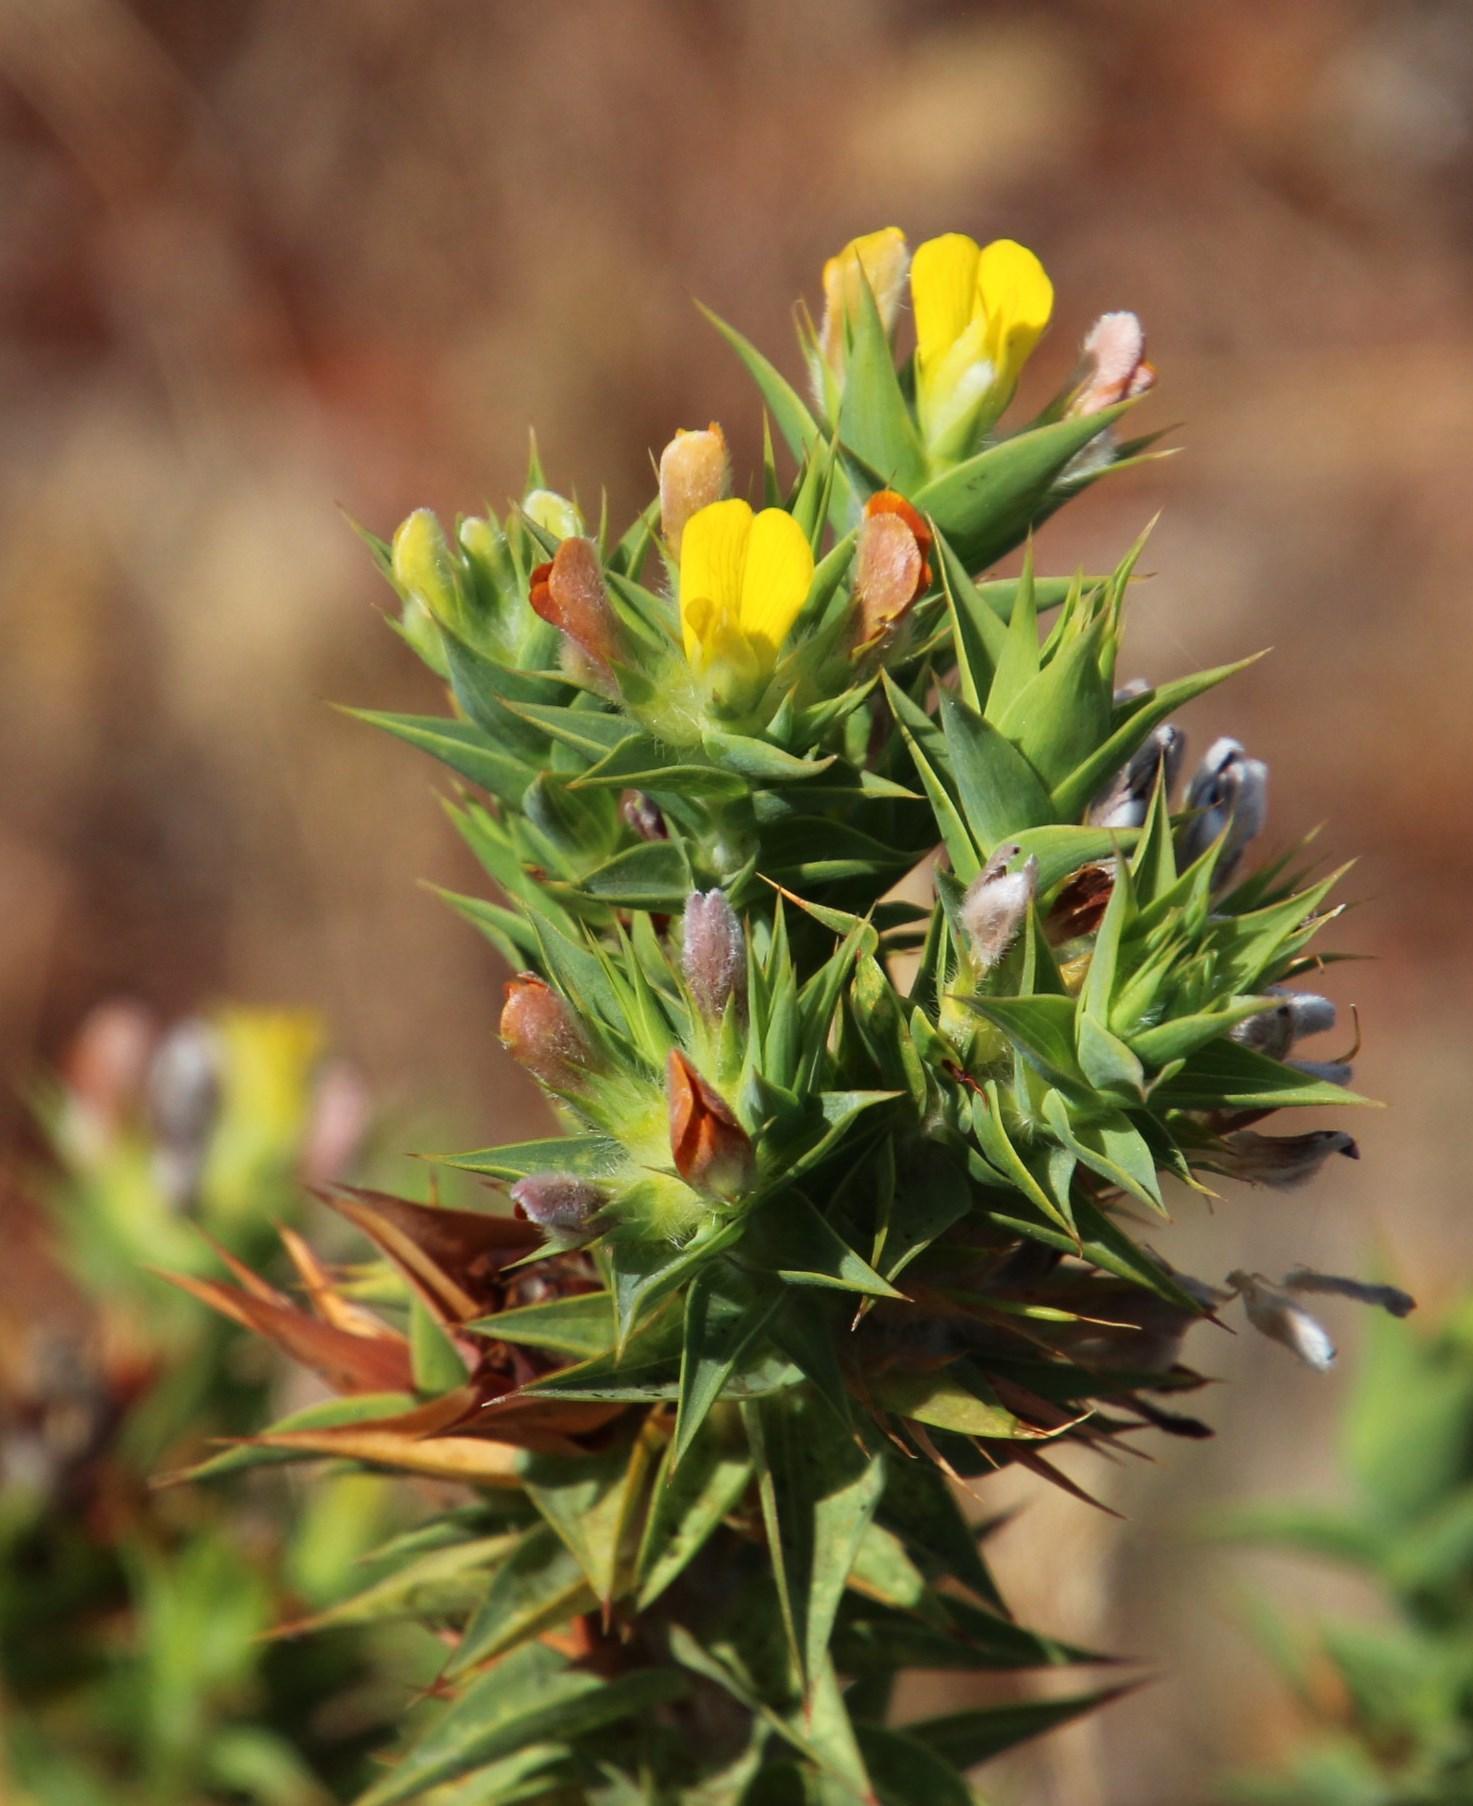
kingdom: Plantae
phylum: Tracheophyta
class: Magnoliopsida
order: Fabales
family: Fabaceae
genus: Aspalathus
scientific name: Aspalathus cordata
